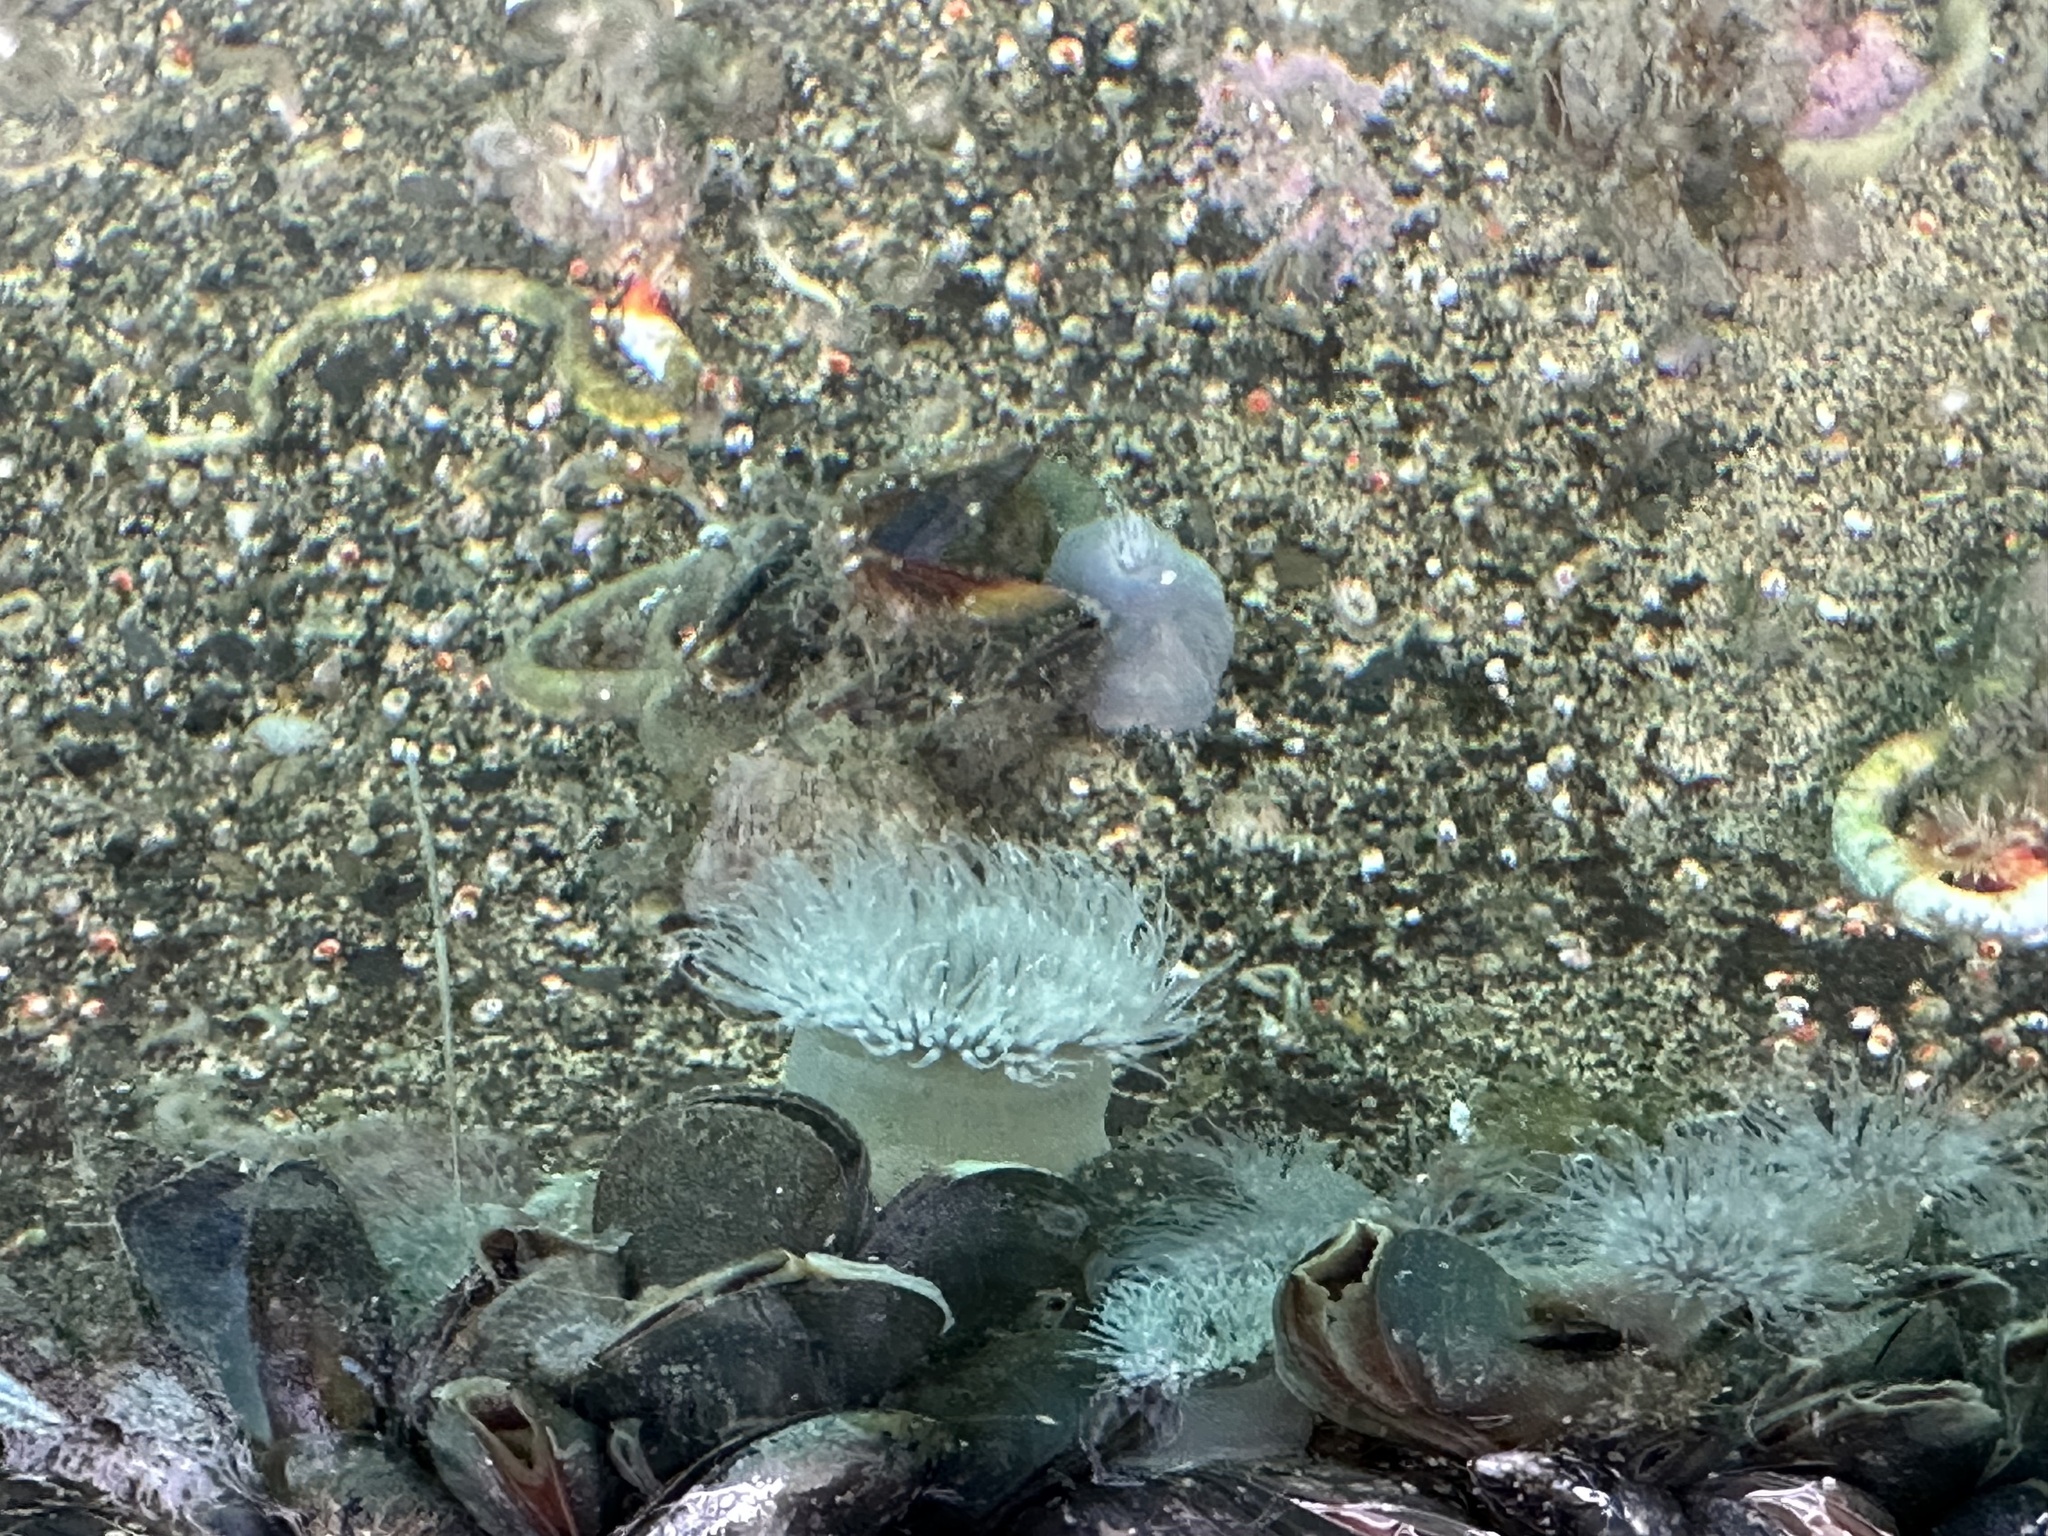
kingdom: Animalia
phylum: Cnidaria
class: Anthozoa
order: Actiniaria
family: Metridiidae
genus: Metridium
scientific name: Metridium senile
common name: Clonal plumose anemone
